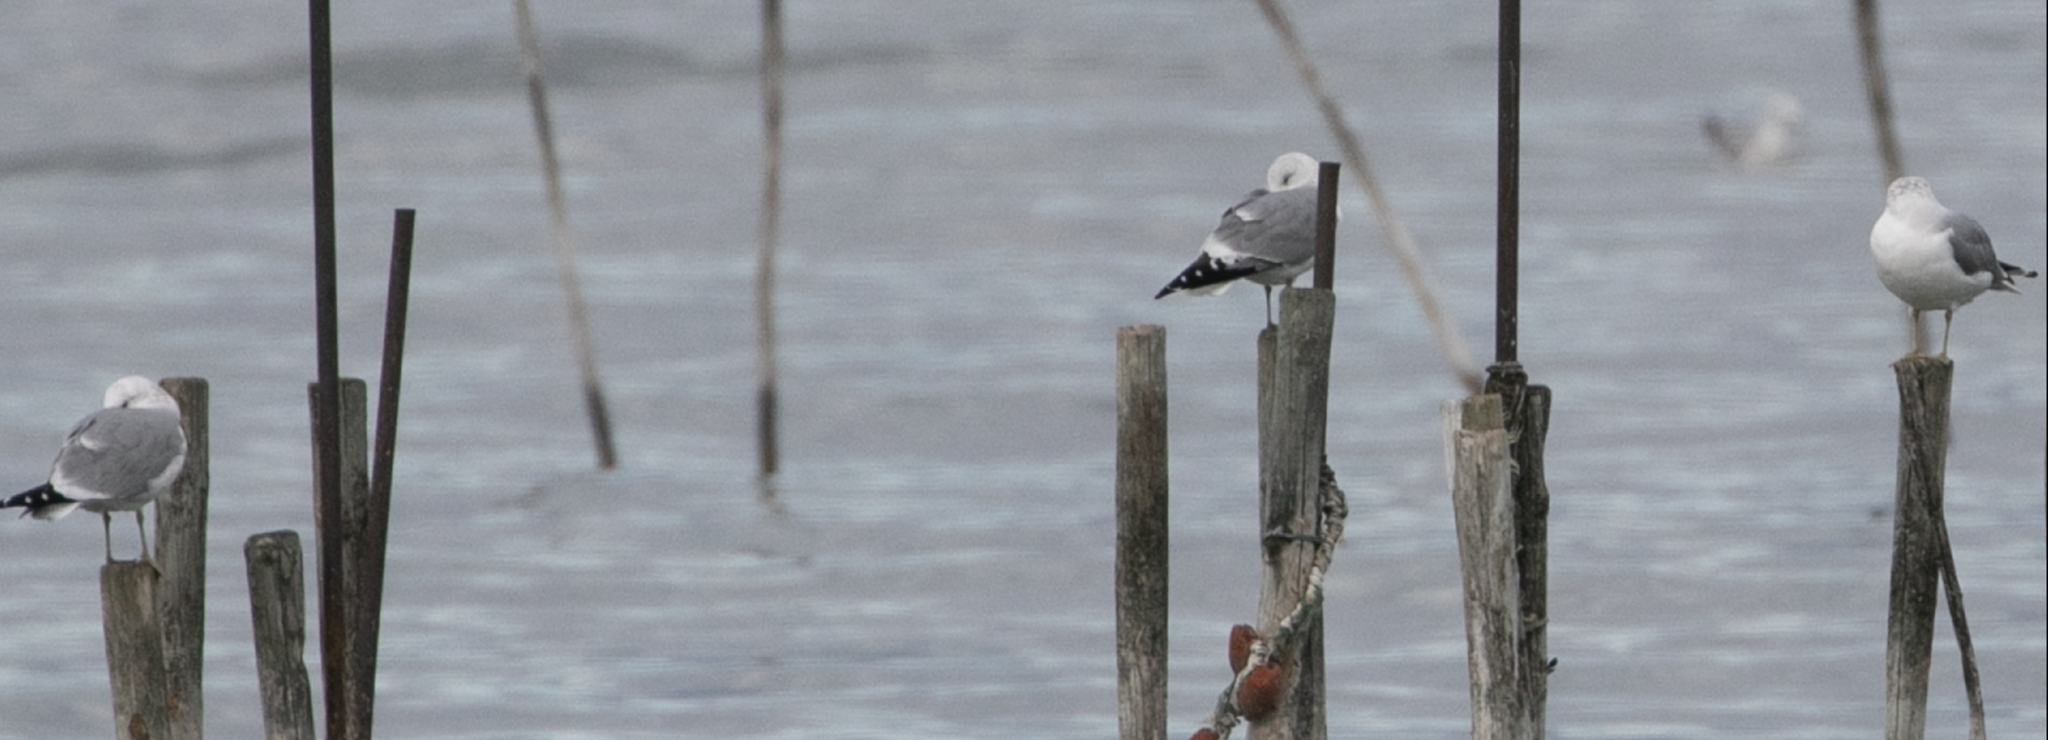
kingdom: Animalia
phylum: Chordata
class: Aves
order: Charadriiformes
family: Laridae
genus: Larus
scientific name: Larus canus
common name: Mew gull
